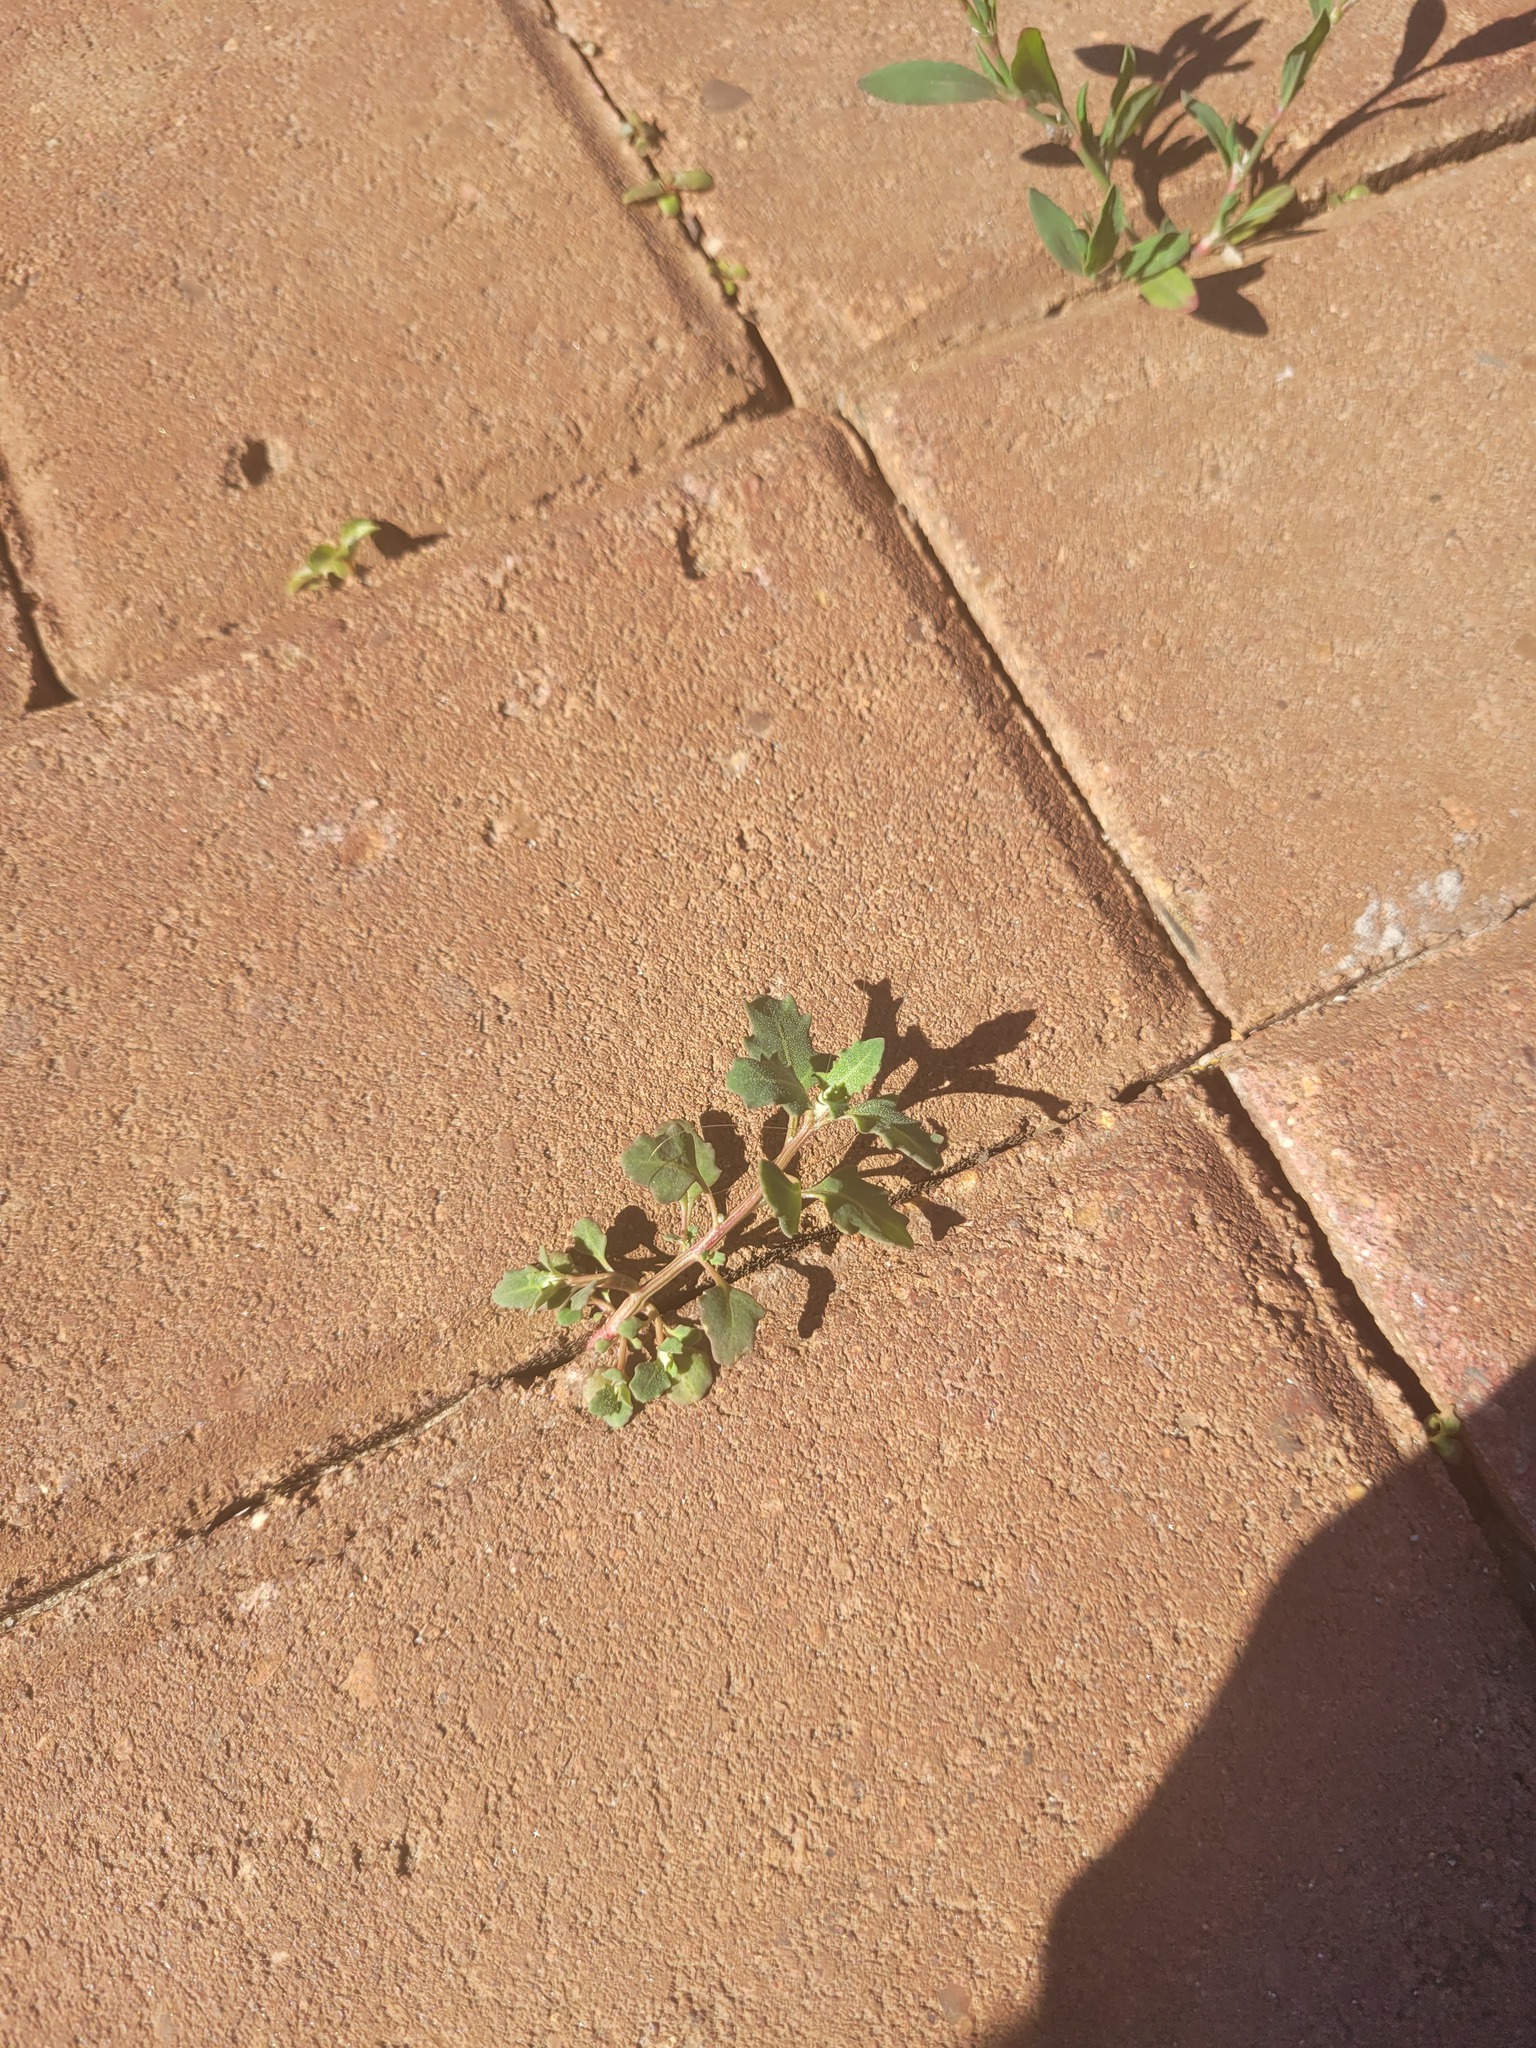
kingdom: Plantae
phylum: Tracheophyta
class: Magnoliopsida
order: Caryophyllales
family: Amaranthaceae
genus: Oxybasis
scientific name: Oxybasis glauca
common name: Glaucous goosefoot
